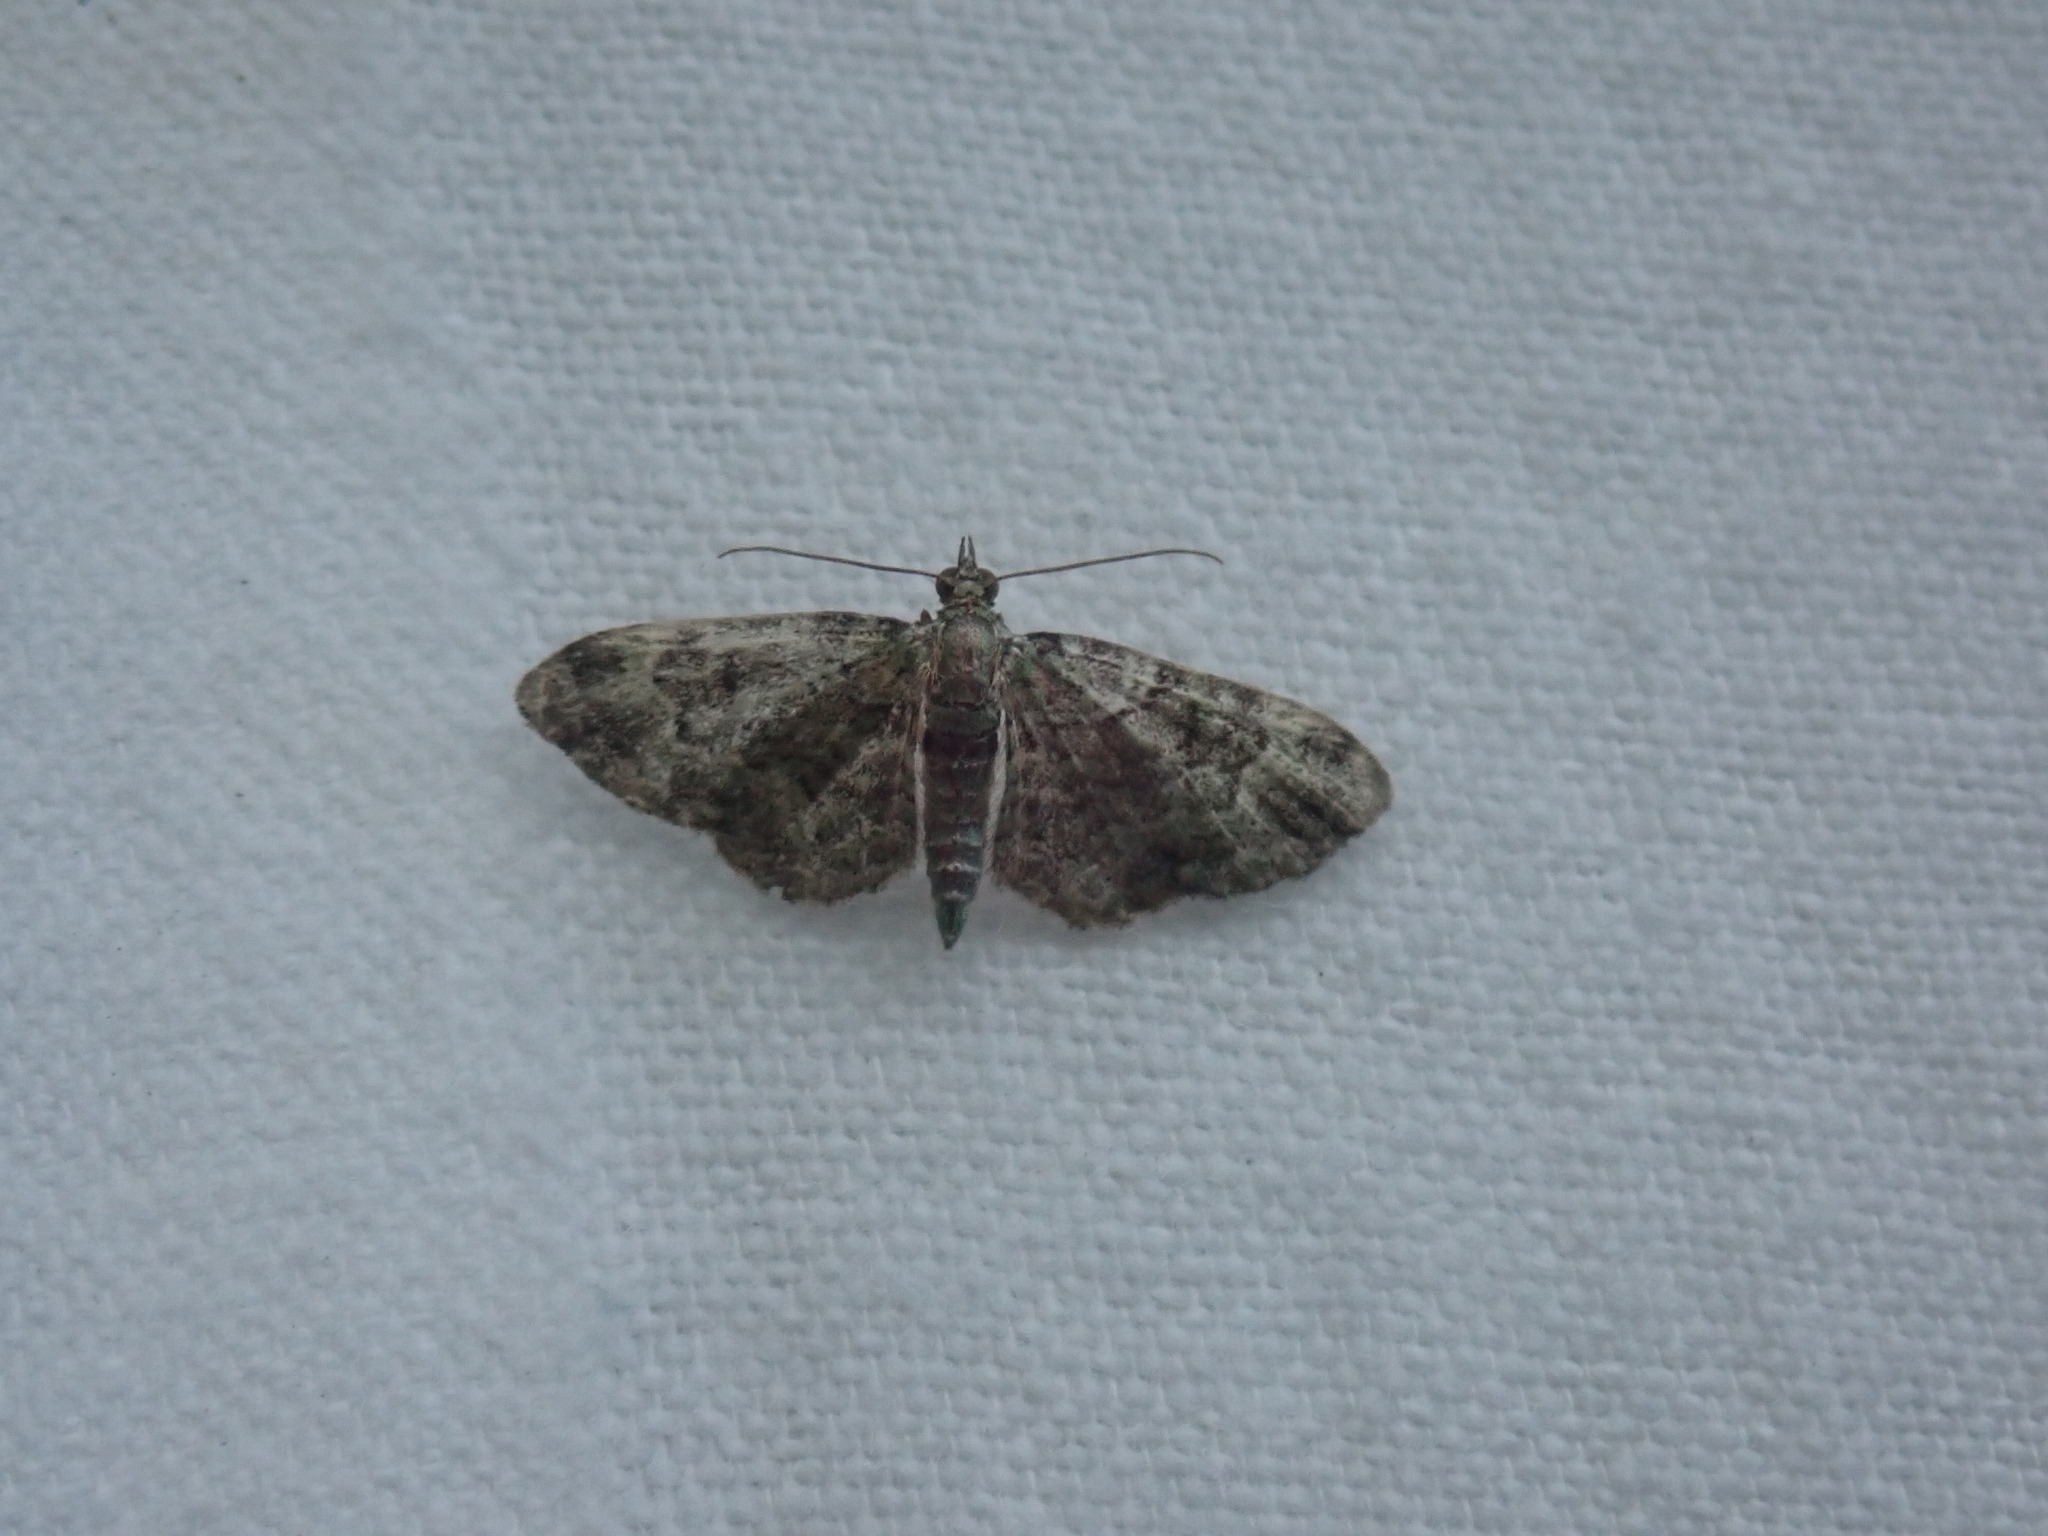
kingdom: Animalia
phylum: Arthropoda
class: Insecta
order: Lepidoptera
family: Geometridae
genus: Pasiphila
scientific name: Pasiphila rectangulata
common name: Green pug
